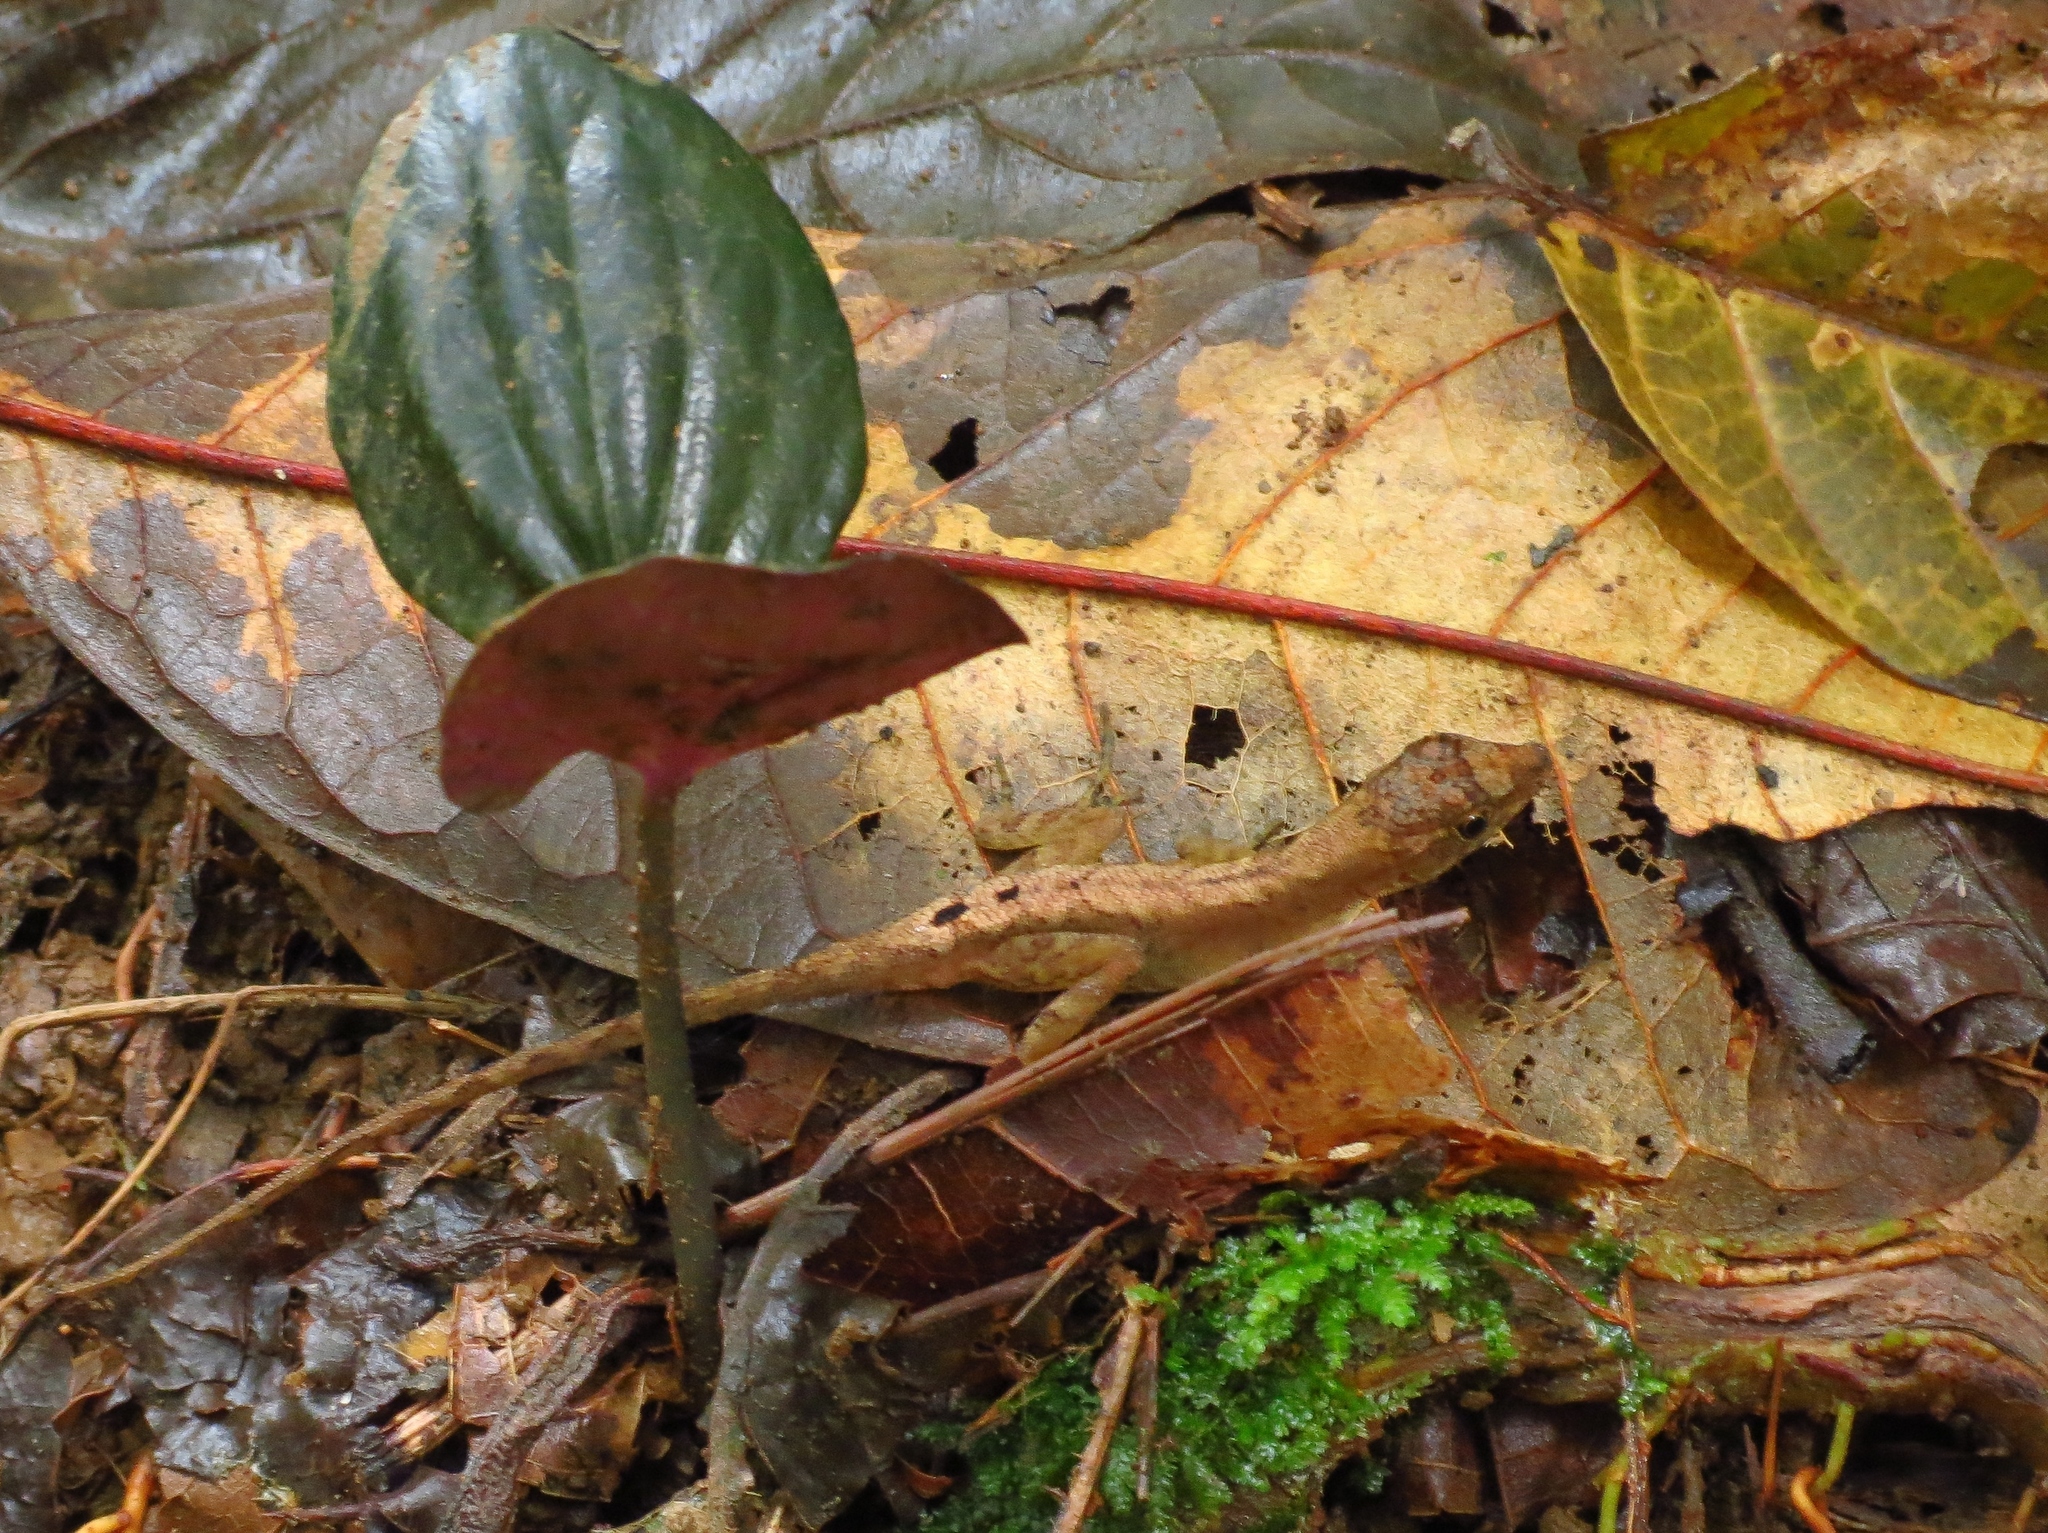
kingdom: Animalia
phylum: Chordata
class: Squamata
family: Dactyloidae
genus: Anolis
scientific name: Anolis humilis
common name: Humble anole
